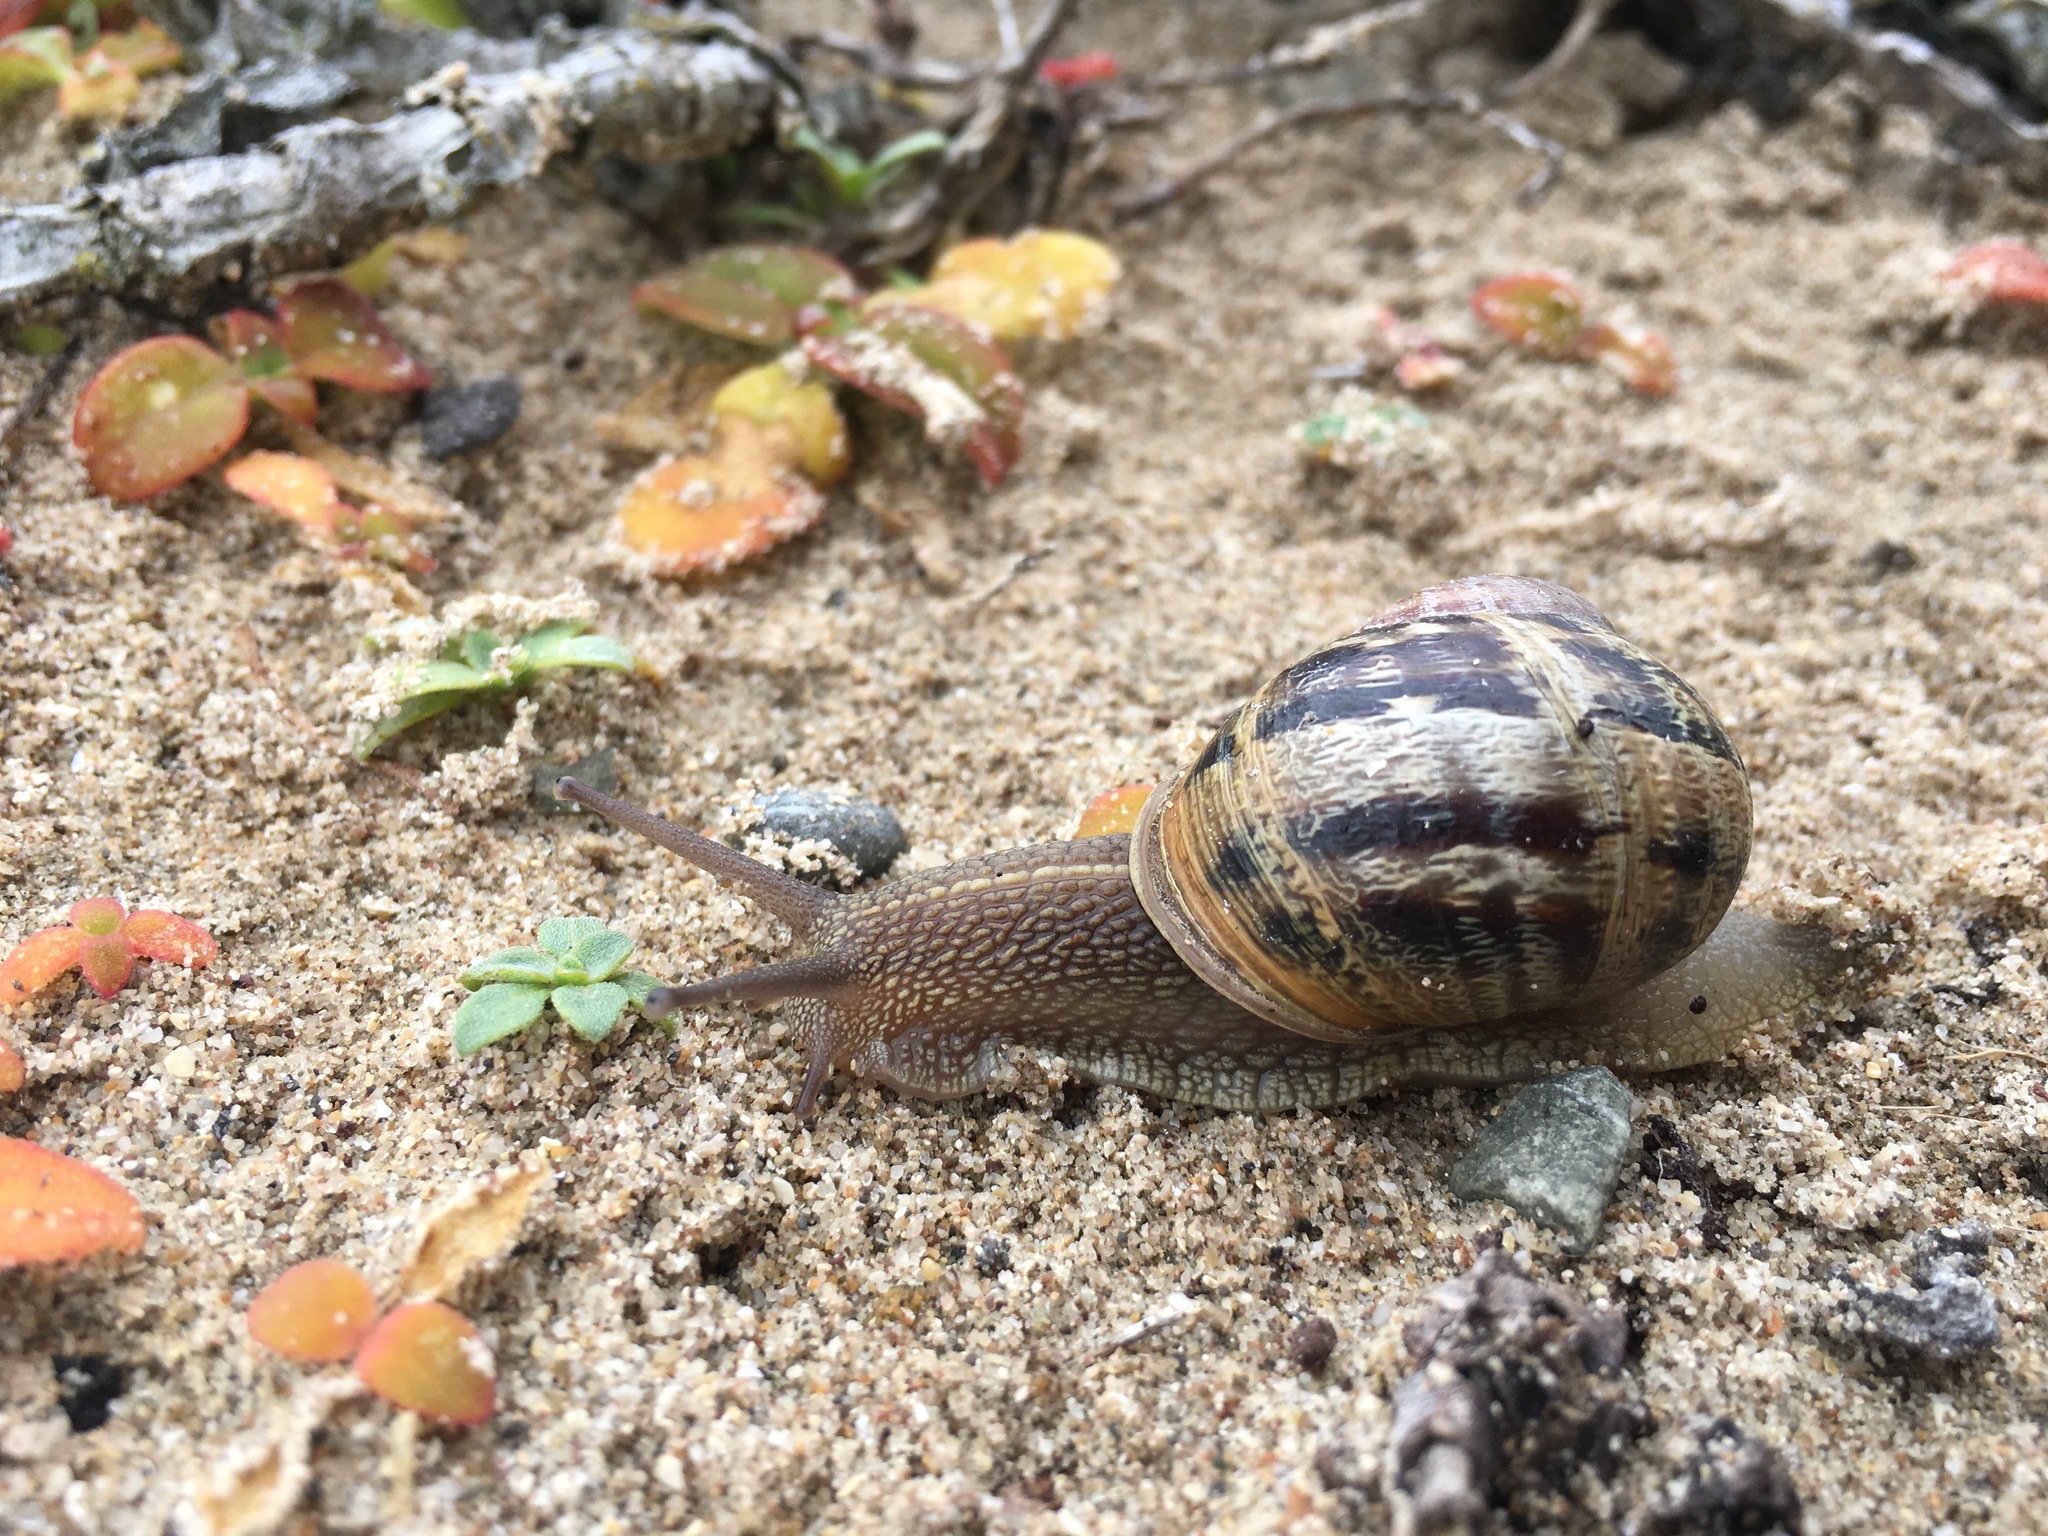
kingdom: Animalia
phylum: Mollusca
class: Gastropoda
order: Stylommatophora
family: Helicidae
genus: Cornu
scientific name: Cornu aspersum
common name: Brown garden snail
